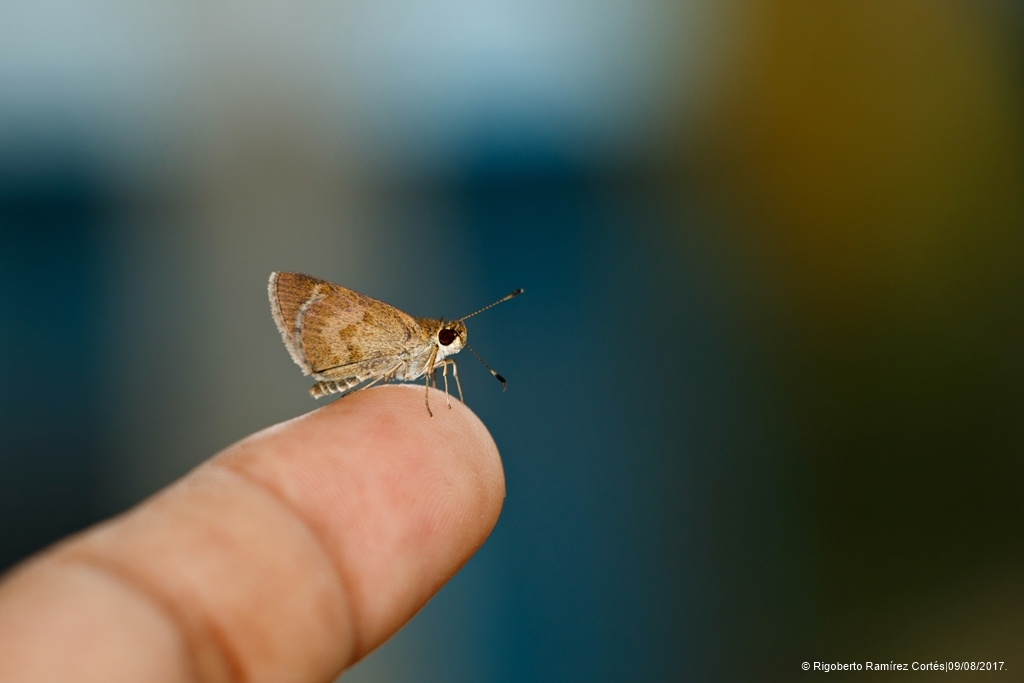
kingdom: Animalia
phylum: Arthropoda
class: Insecta
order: Lepidoptera
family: Hesperiidae
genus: Callimormus
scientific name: Callimormus saturnus
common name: Saturnus skipper
